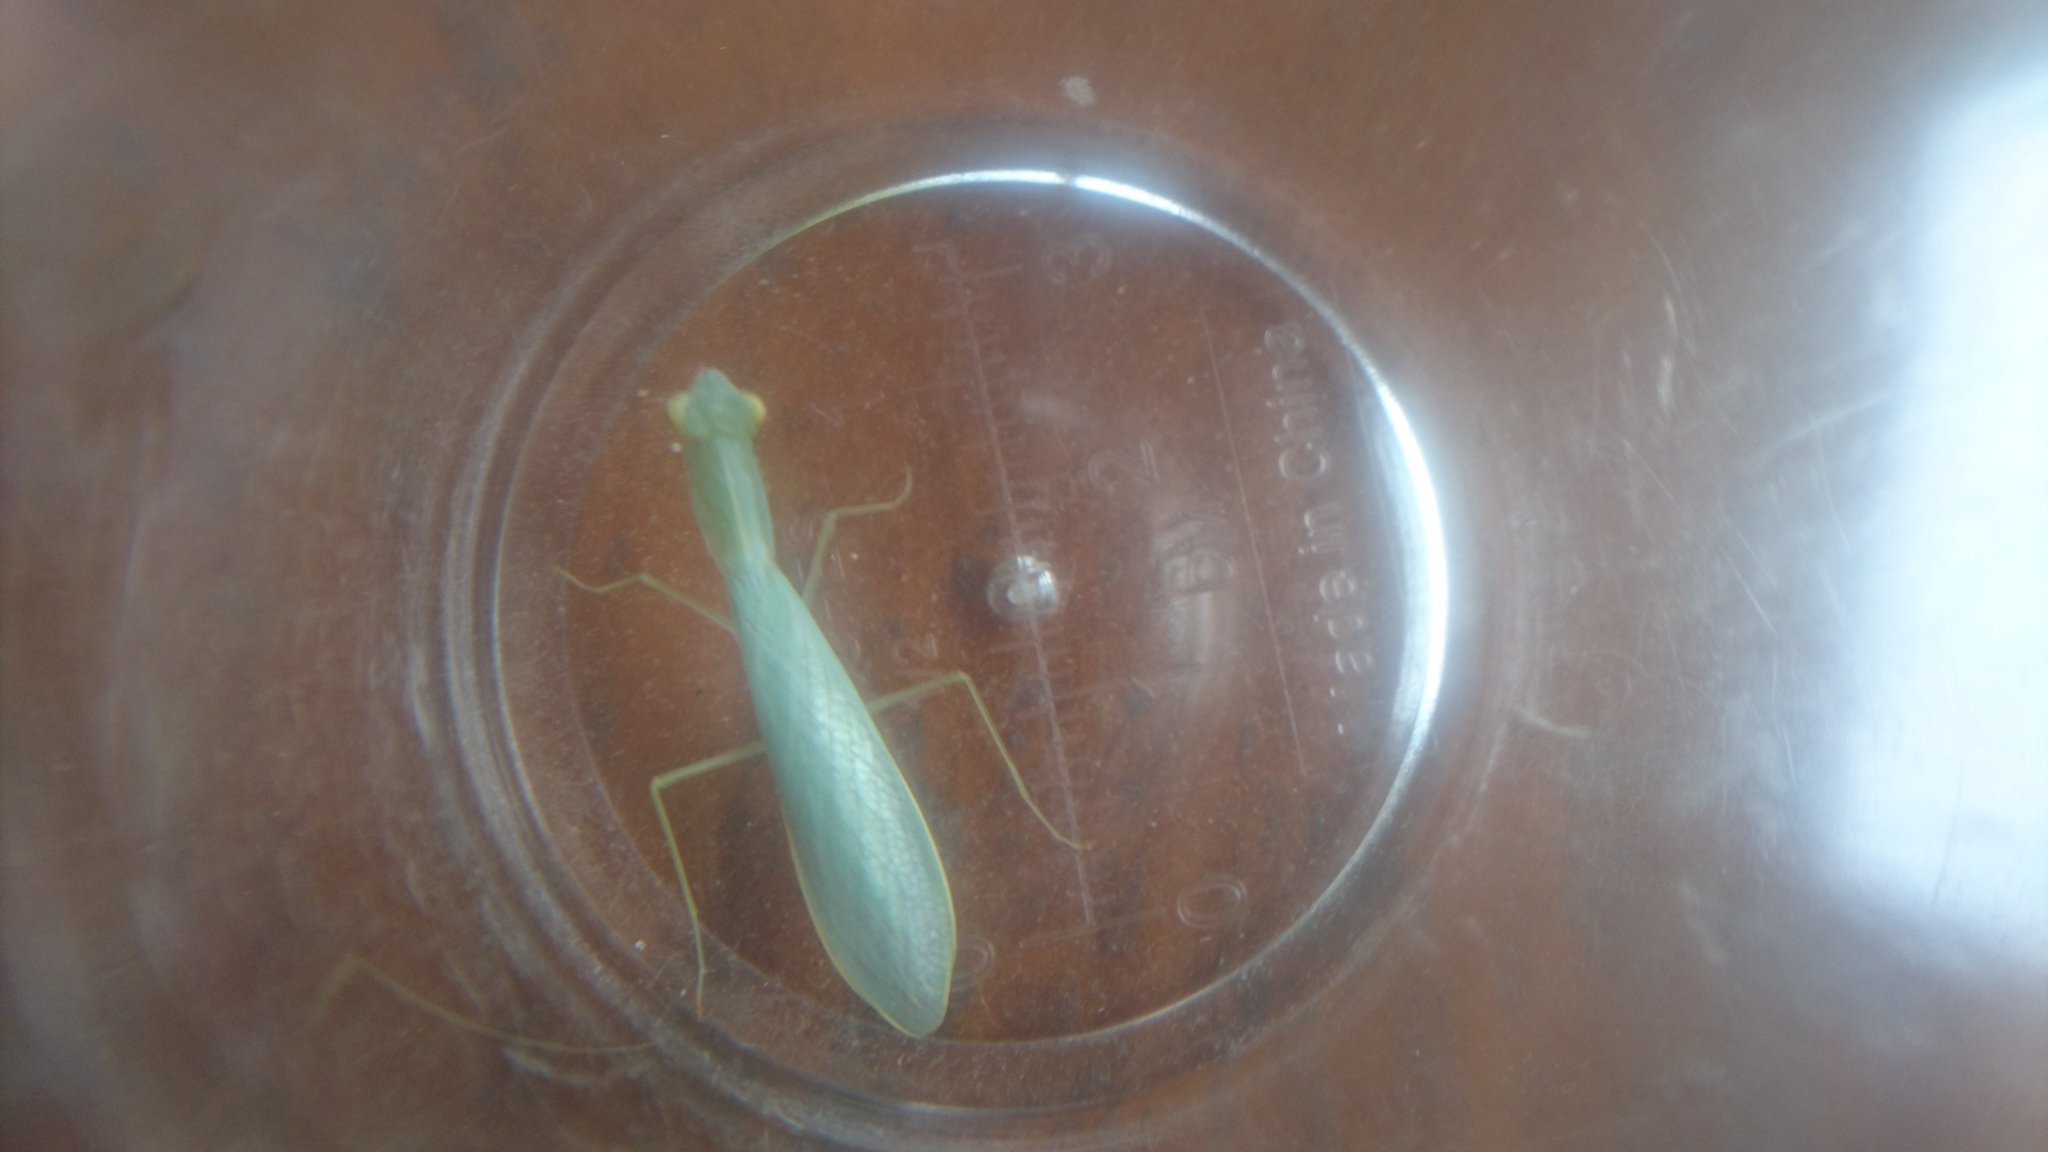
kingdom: Animalia
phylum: Arthropoda
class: Insecta
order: Mantodea
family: Nanomantidae
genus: Kongobatha
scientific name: Kongobatha diademata
